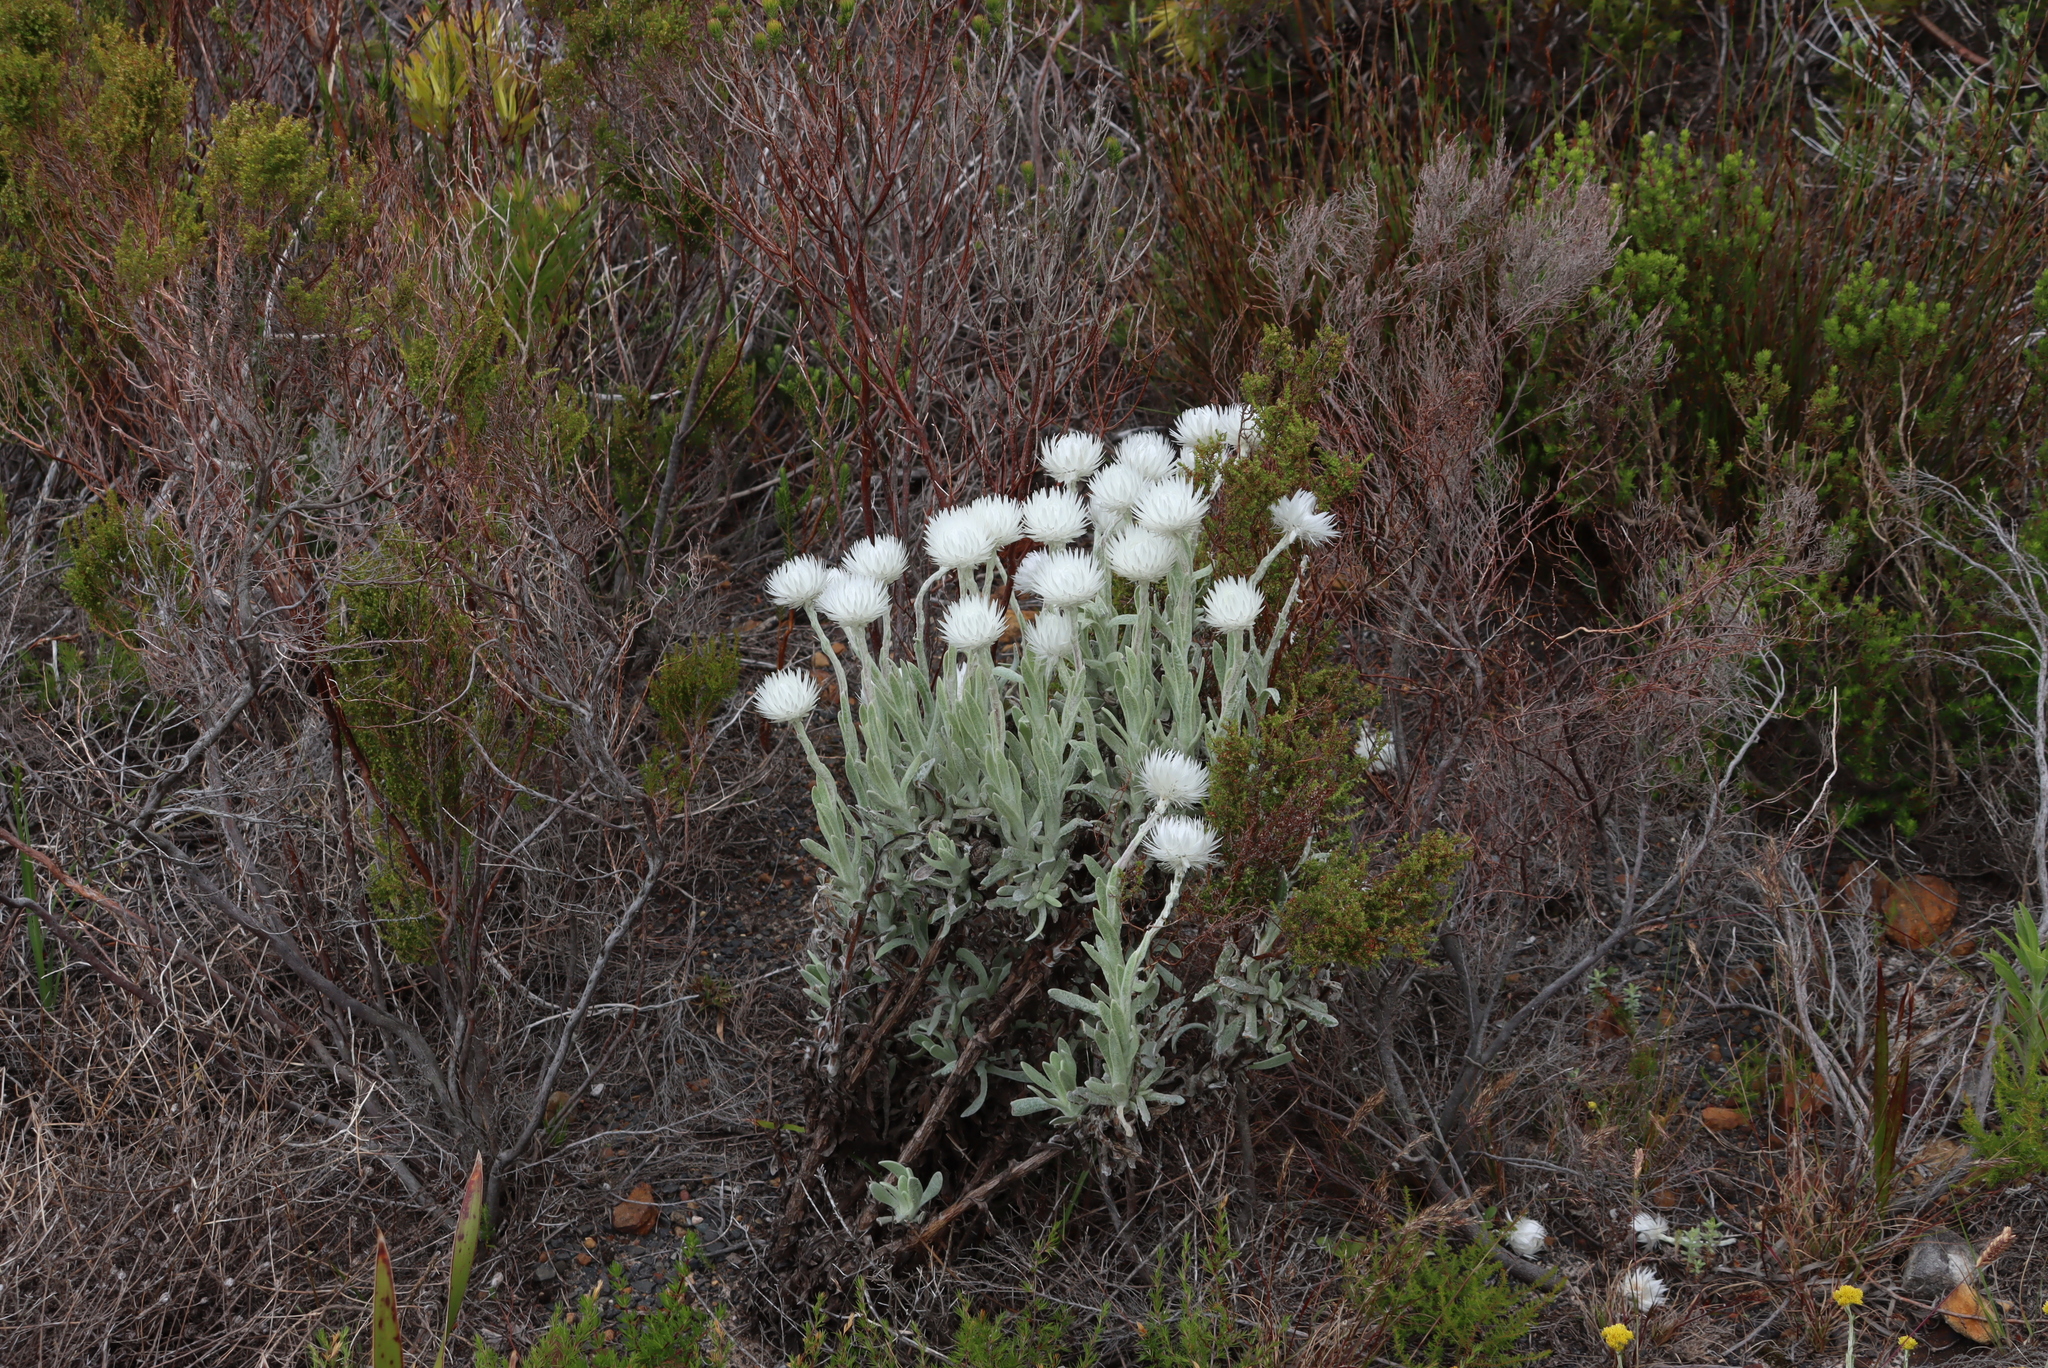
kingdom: Plantae
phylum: Tracheophyta
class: Magnoliopsida
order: Asterales
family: Asteraceae
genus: Syncarpha
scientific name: Syncarpha vestita
